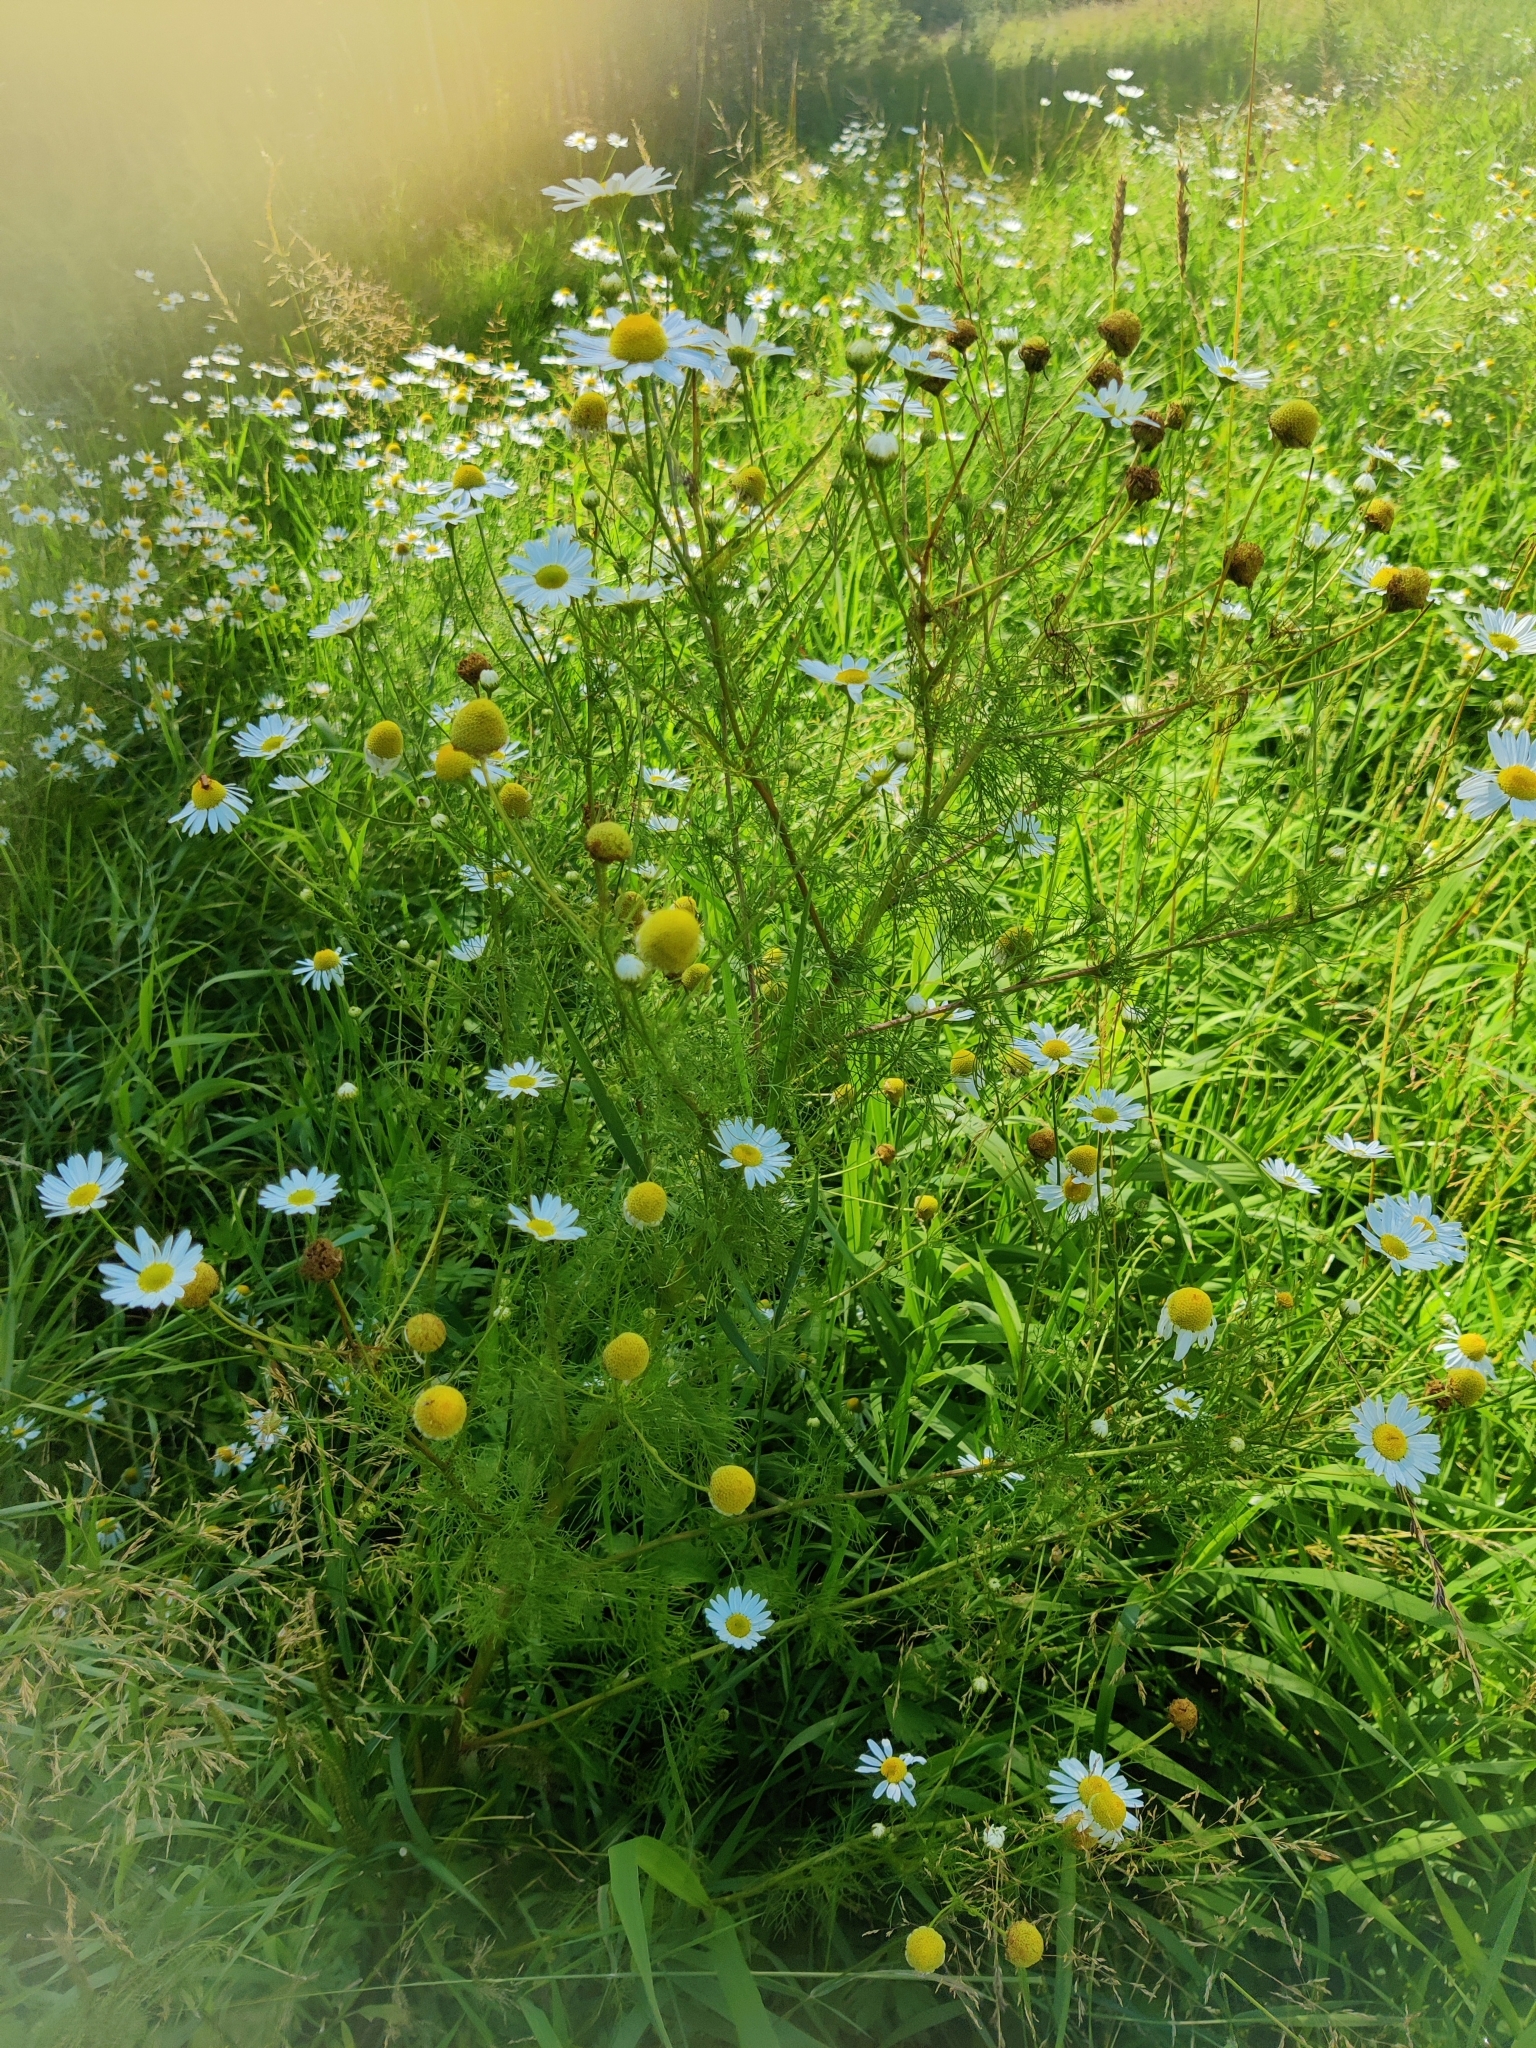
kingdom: Plantae
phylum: Tracheophyta
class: Magnoliopsida
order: Asterales
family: Asteraceae
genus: Tripleurospermum
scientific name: Tripleurospermum inodorum
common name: Scentless mayweed
